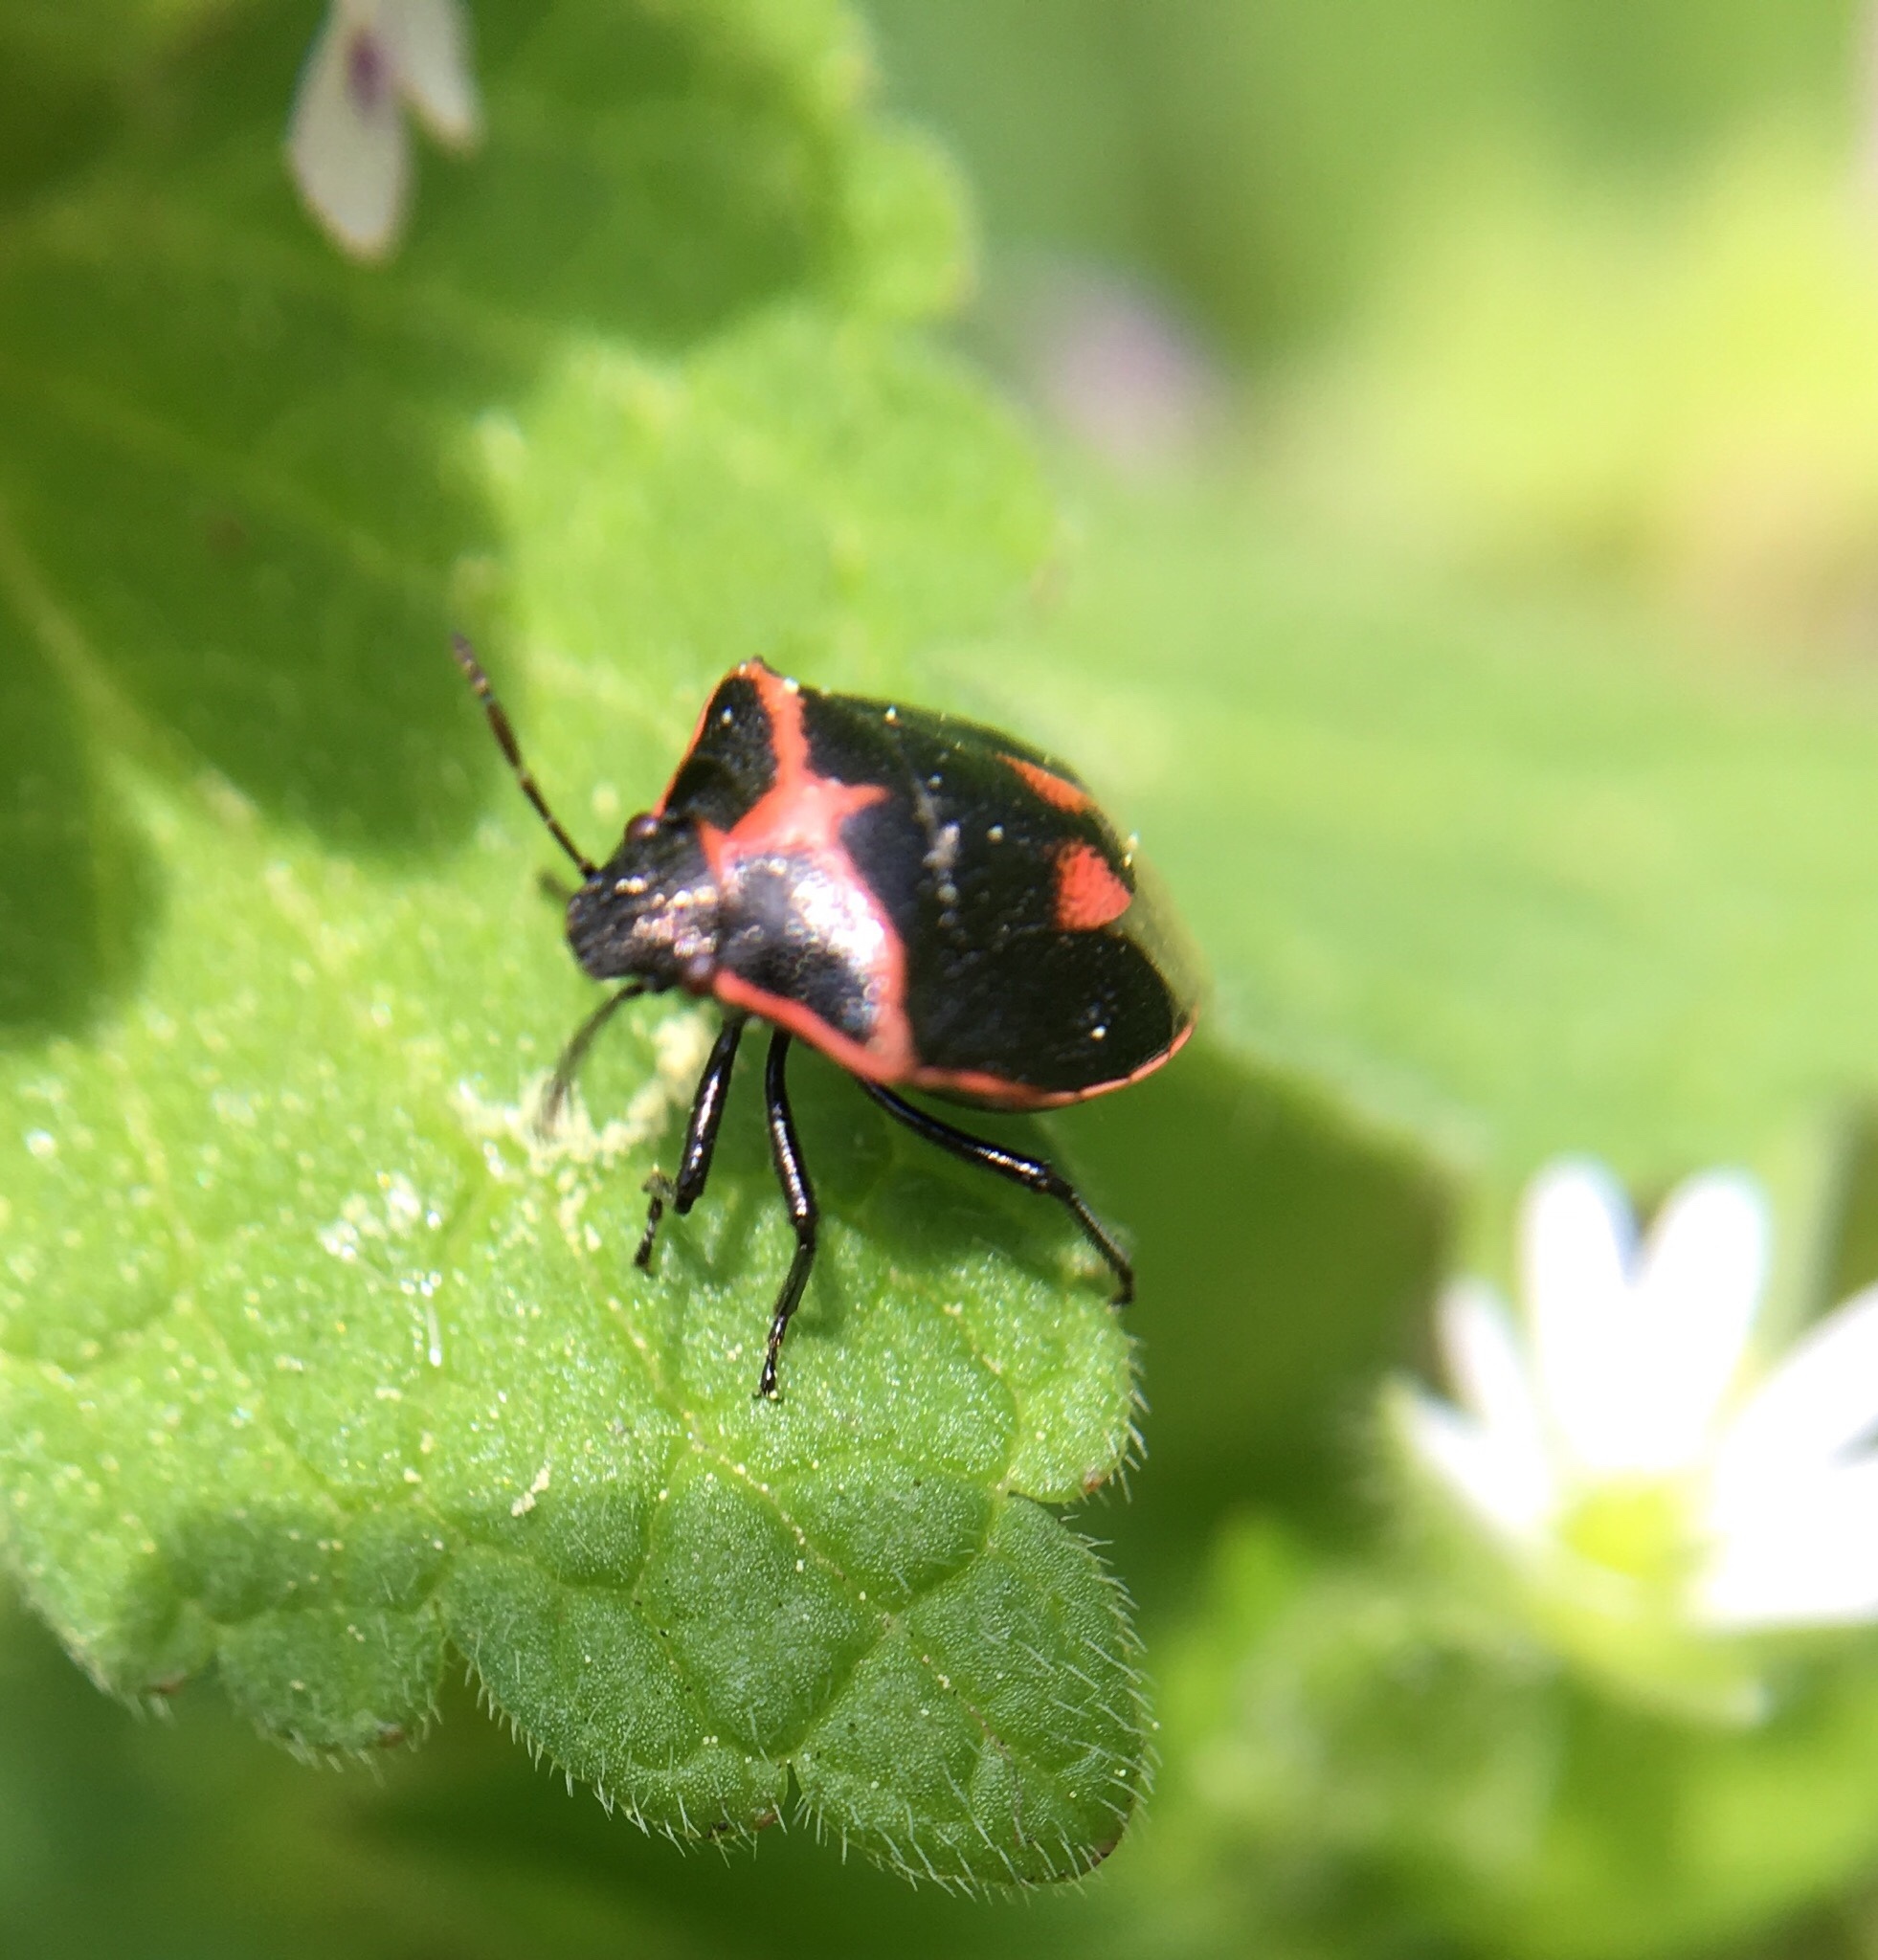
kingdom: Animalia
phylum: Arthropoda
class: Insecta
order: Hemiptera
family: Pentatomidae
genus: Cosmopepla
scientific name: Cosmopepla lintneriana
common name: Twice-stabbed stink bug
